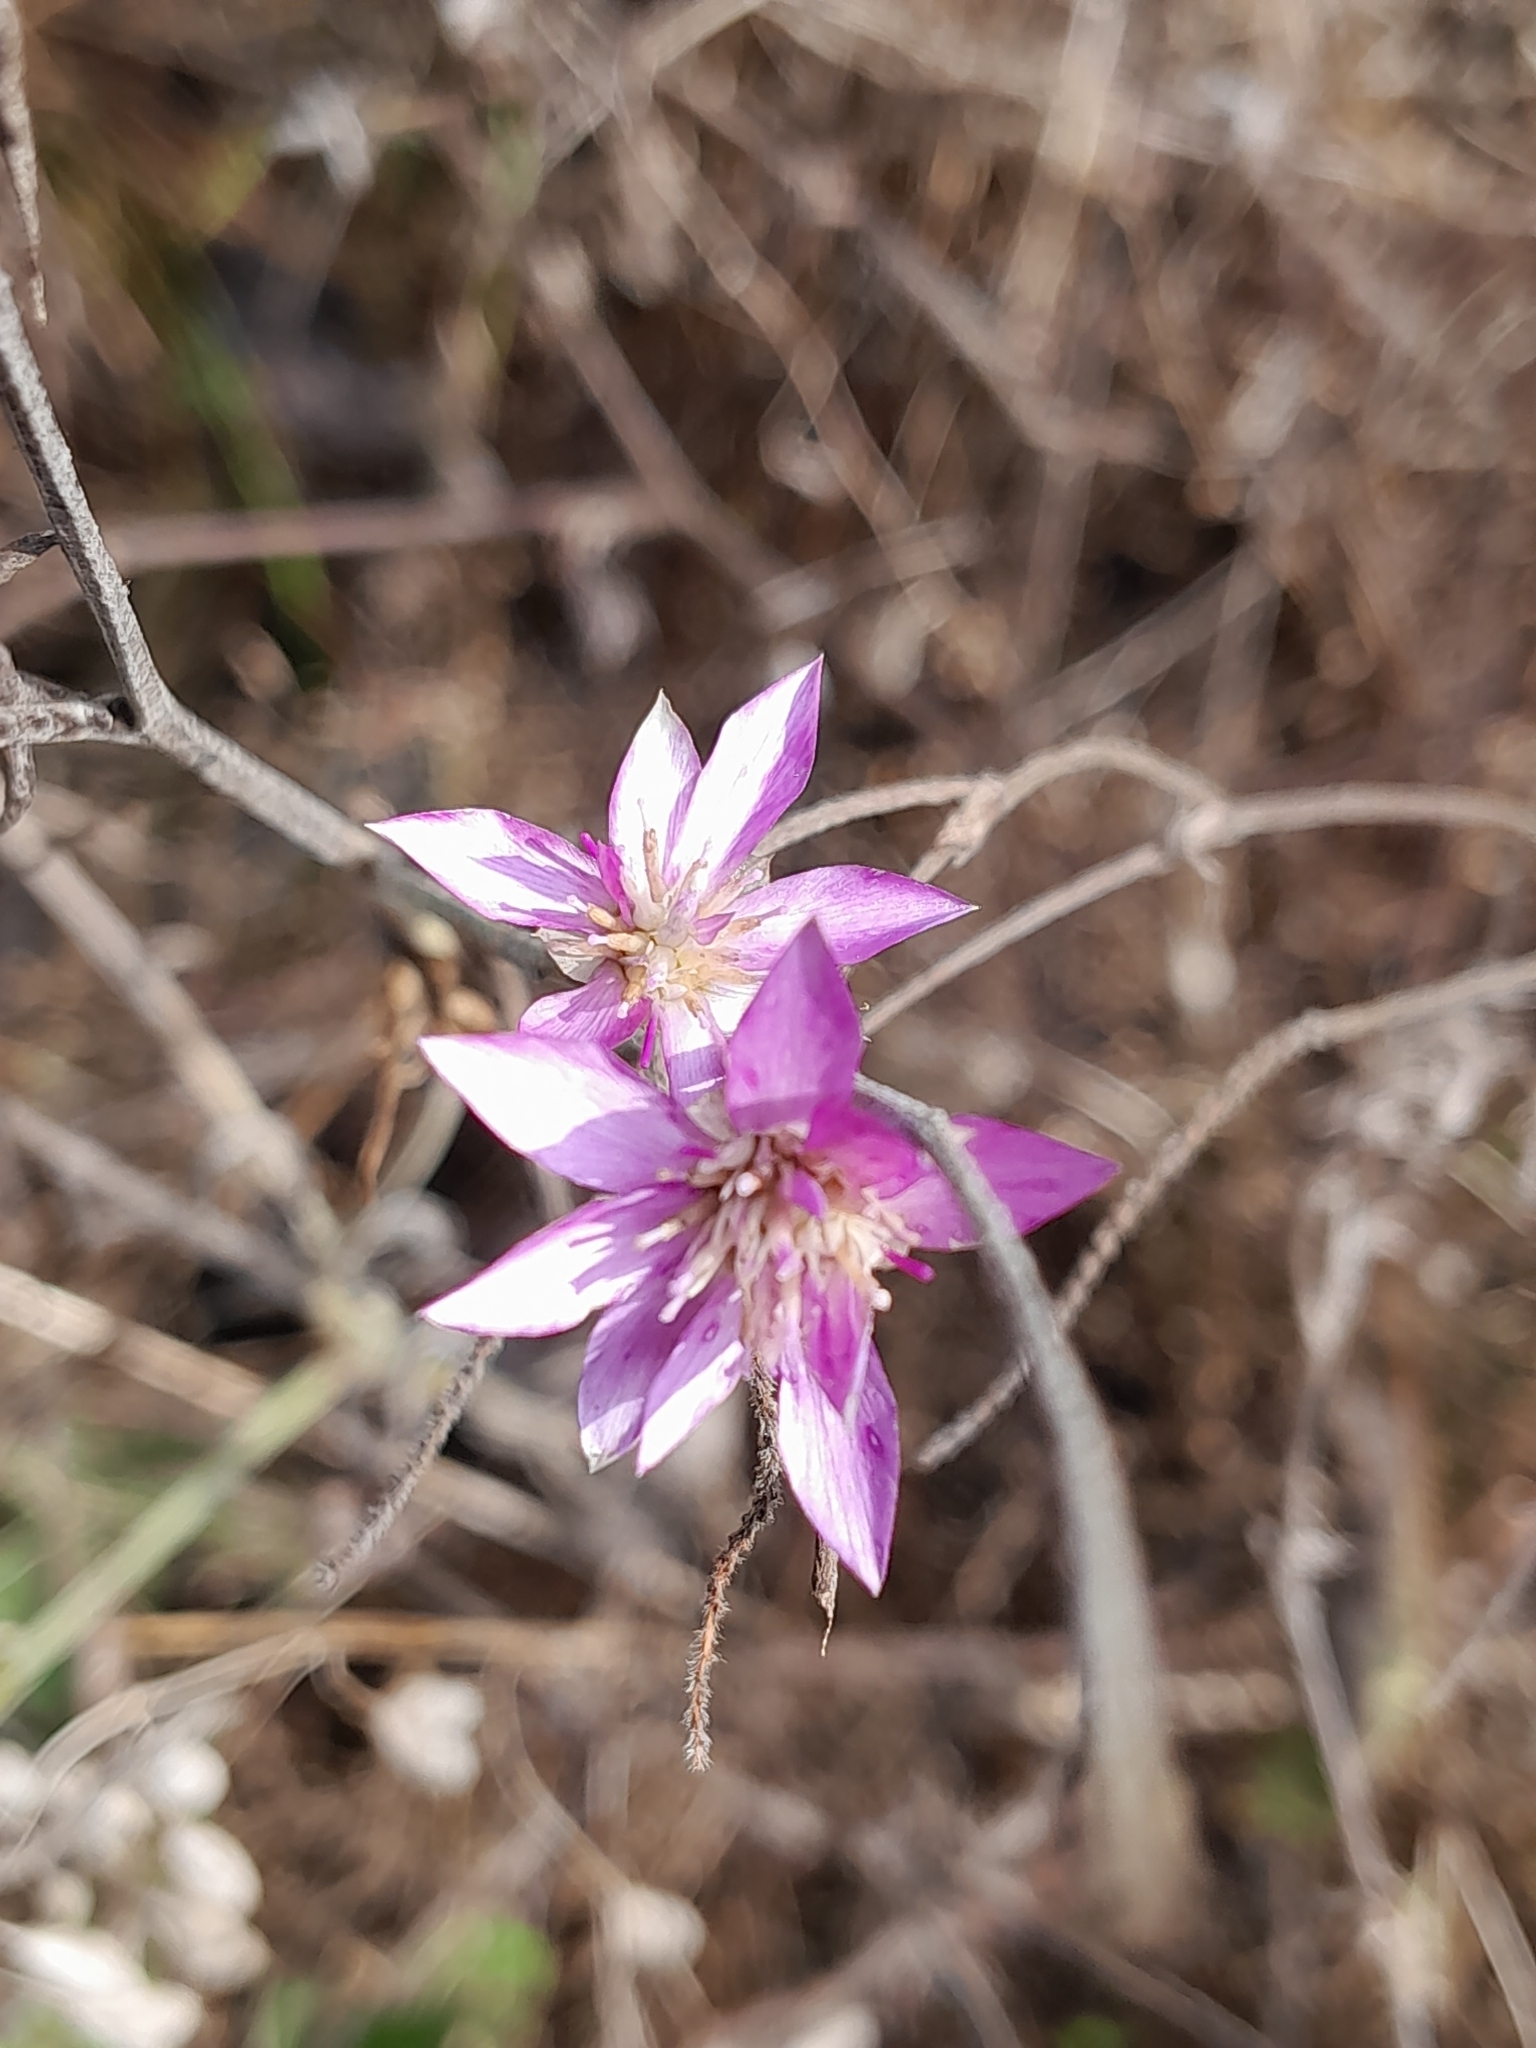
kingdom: Plantae
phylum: Tracheophyta
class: Magnoliopsida
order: Asterales
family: Asteraceae
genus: Xeranthemum
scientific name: Xeranthemum annuum
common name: Immortelle
